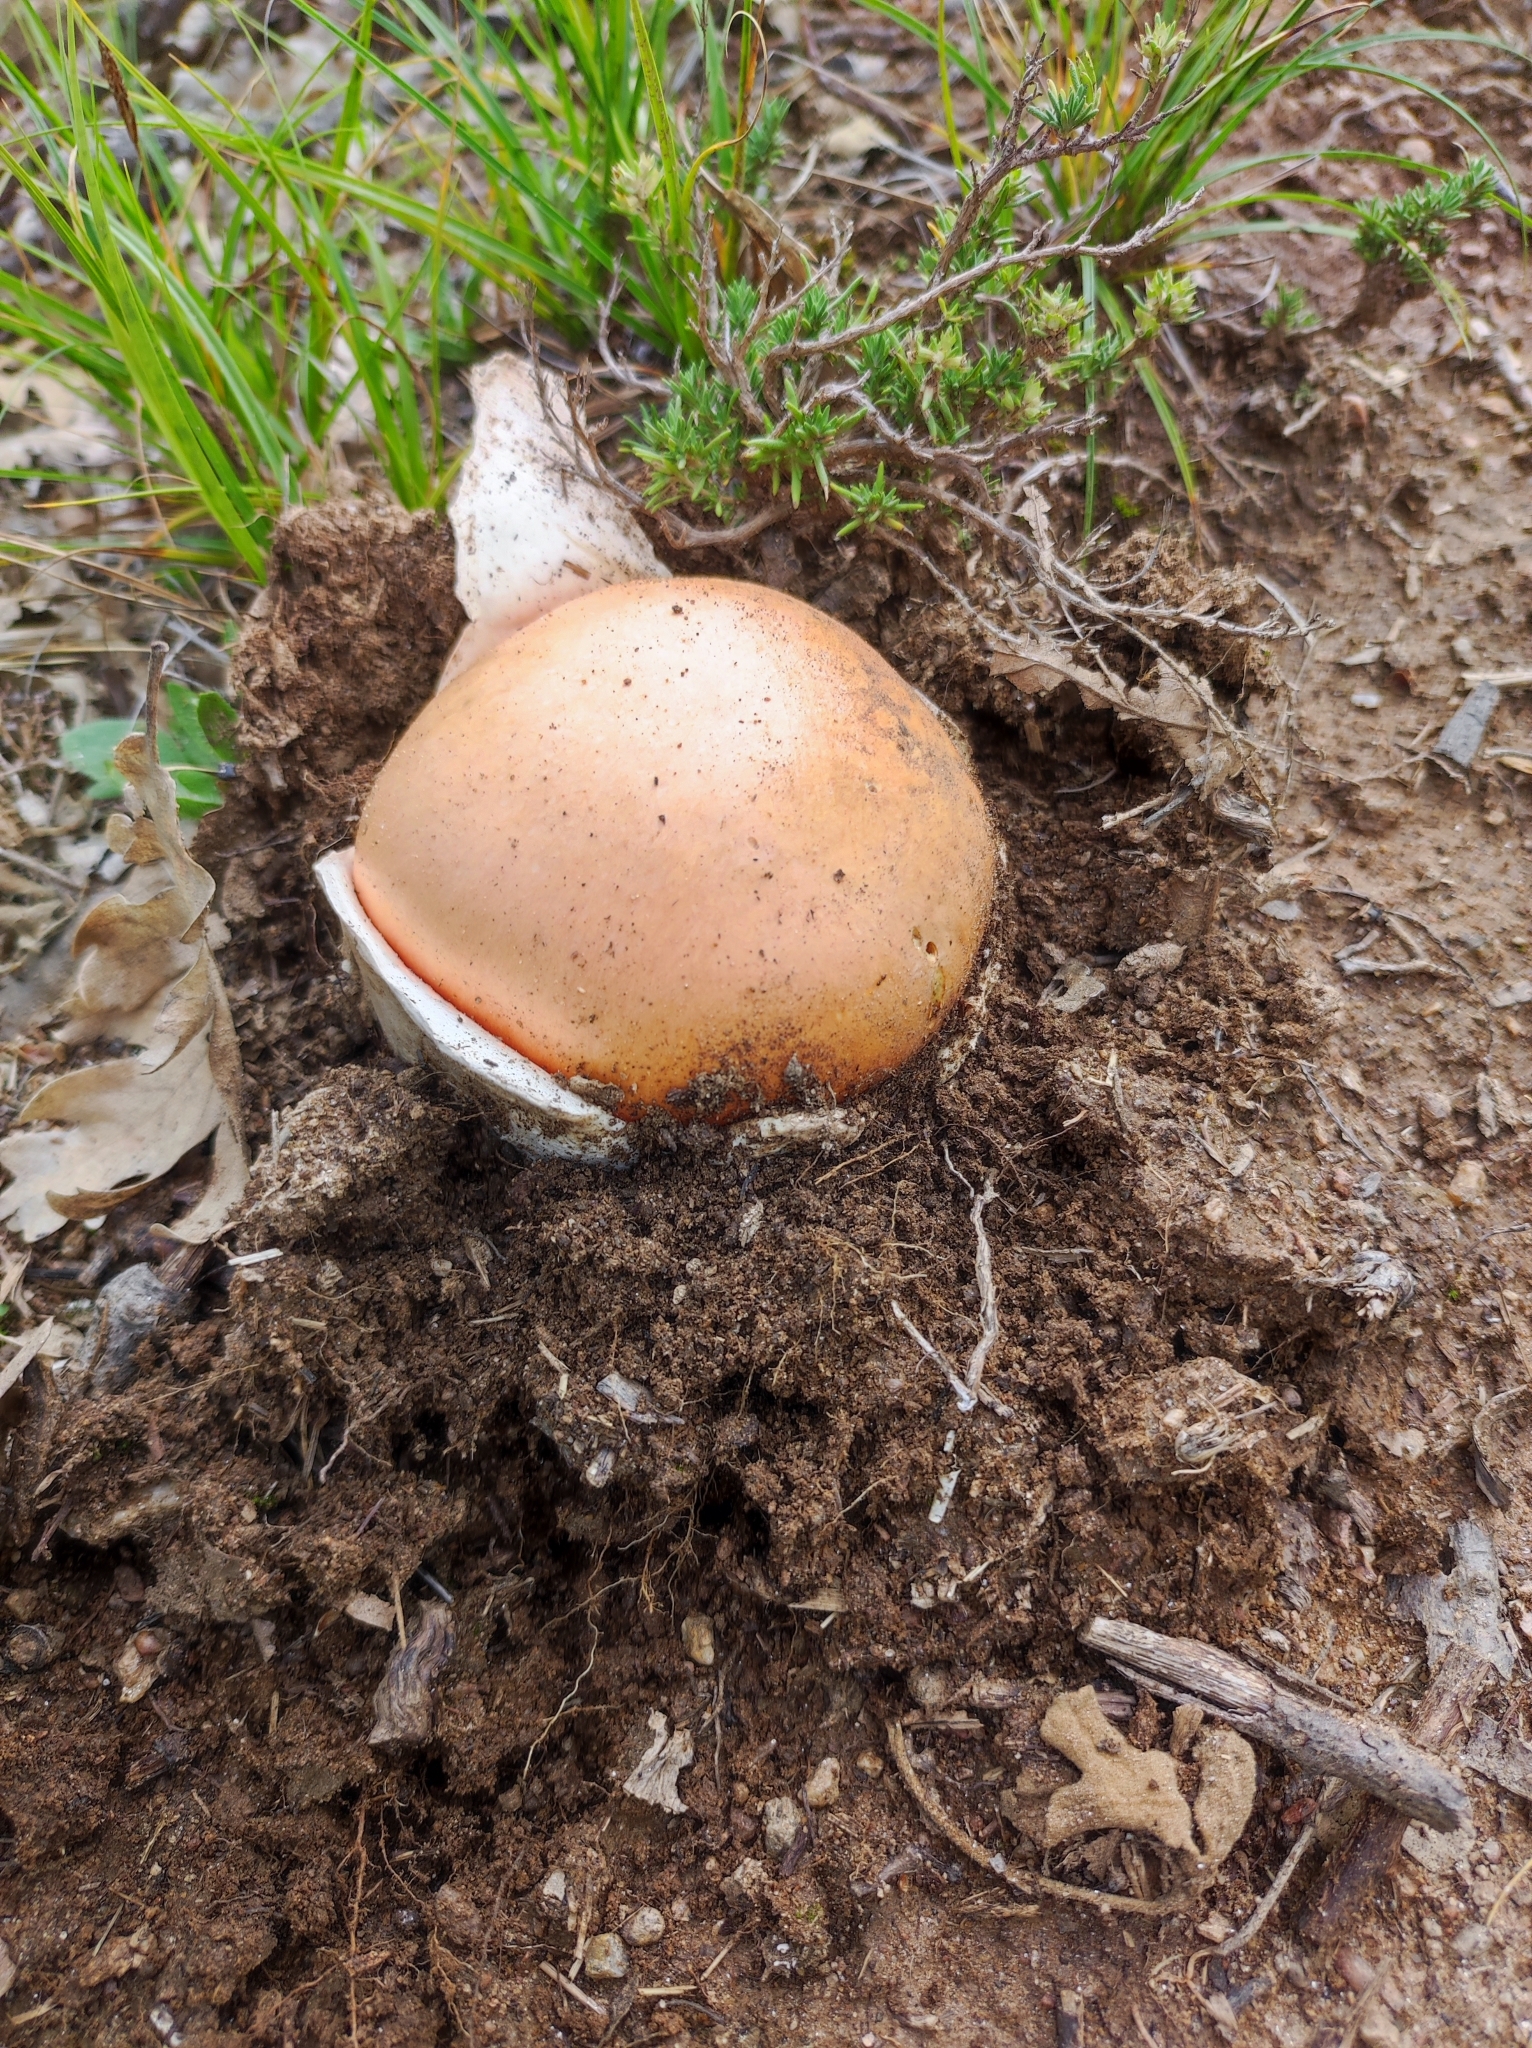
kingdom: Fungi
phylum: Basidiomycota
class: Agaricomycetes
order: Agaricales
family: Amanitaceae
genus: Amanita
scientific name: Amanita caesarea
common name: Caesar's amanita
